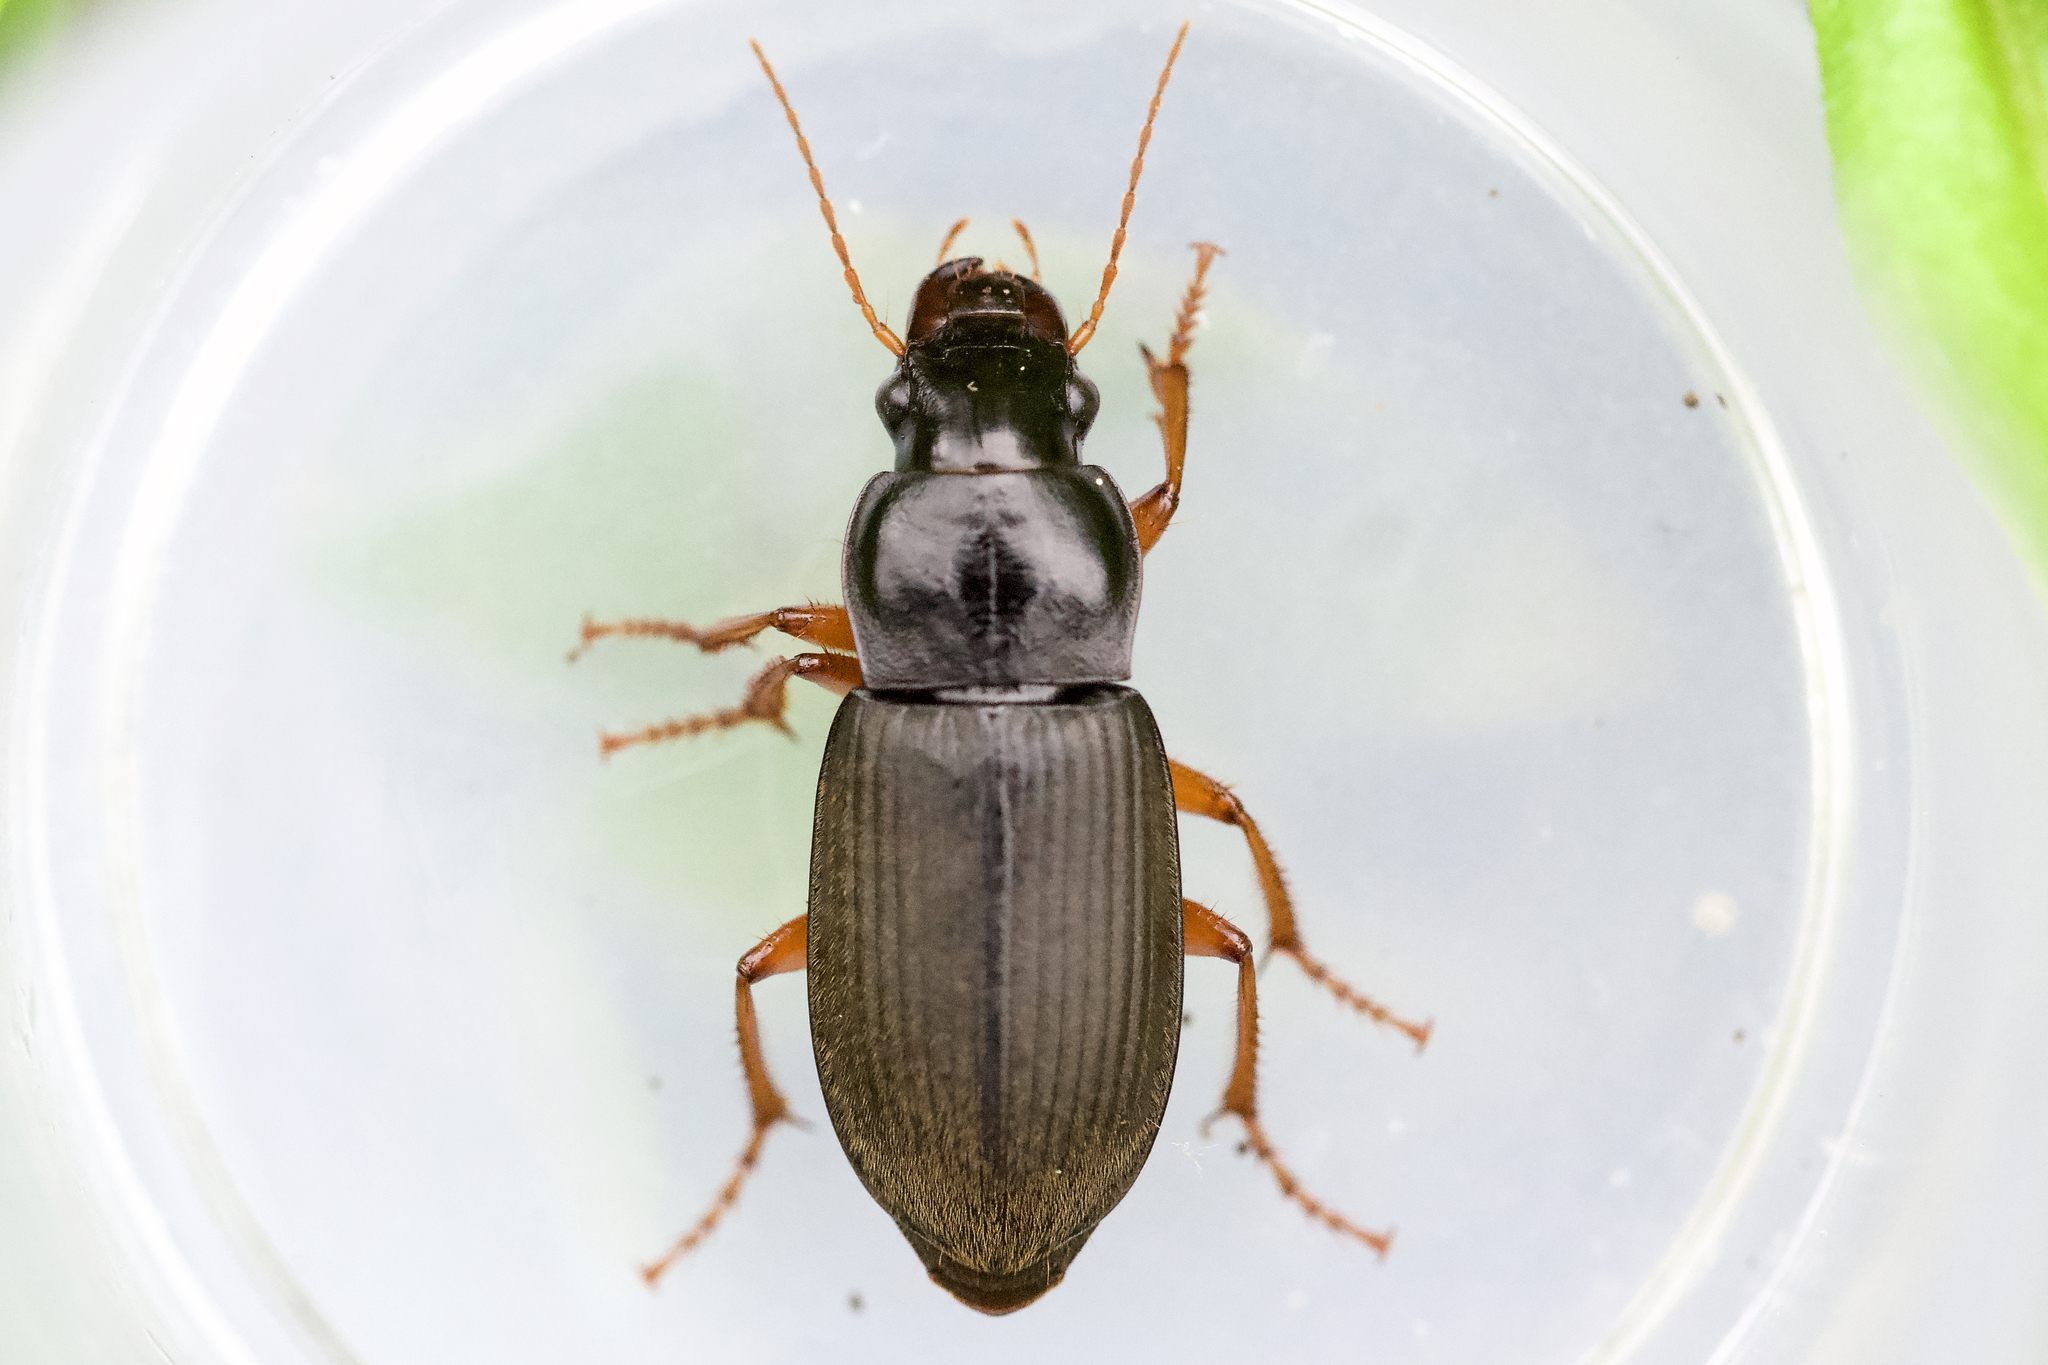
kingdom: Animalia
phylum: Arthropoda
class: Insecta
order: Coleoptera
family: Carabidae
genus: Harpalus
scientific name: Harpalus rufipes
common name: Strawberry harp ground beetle
